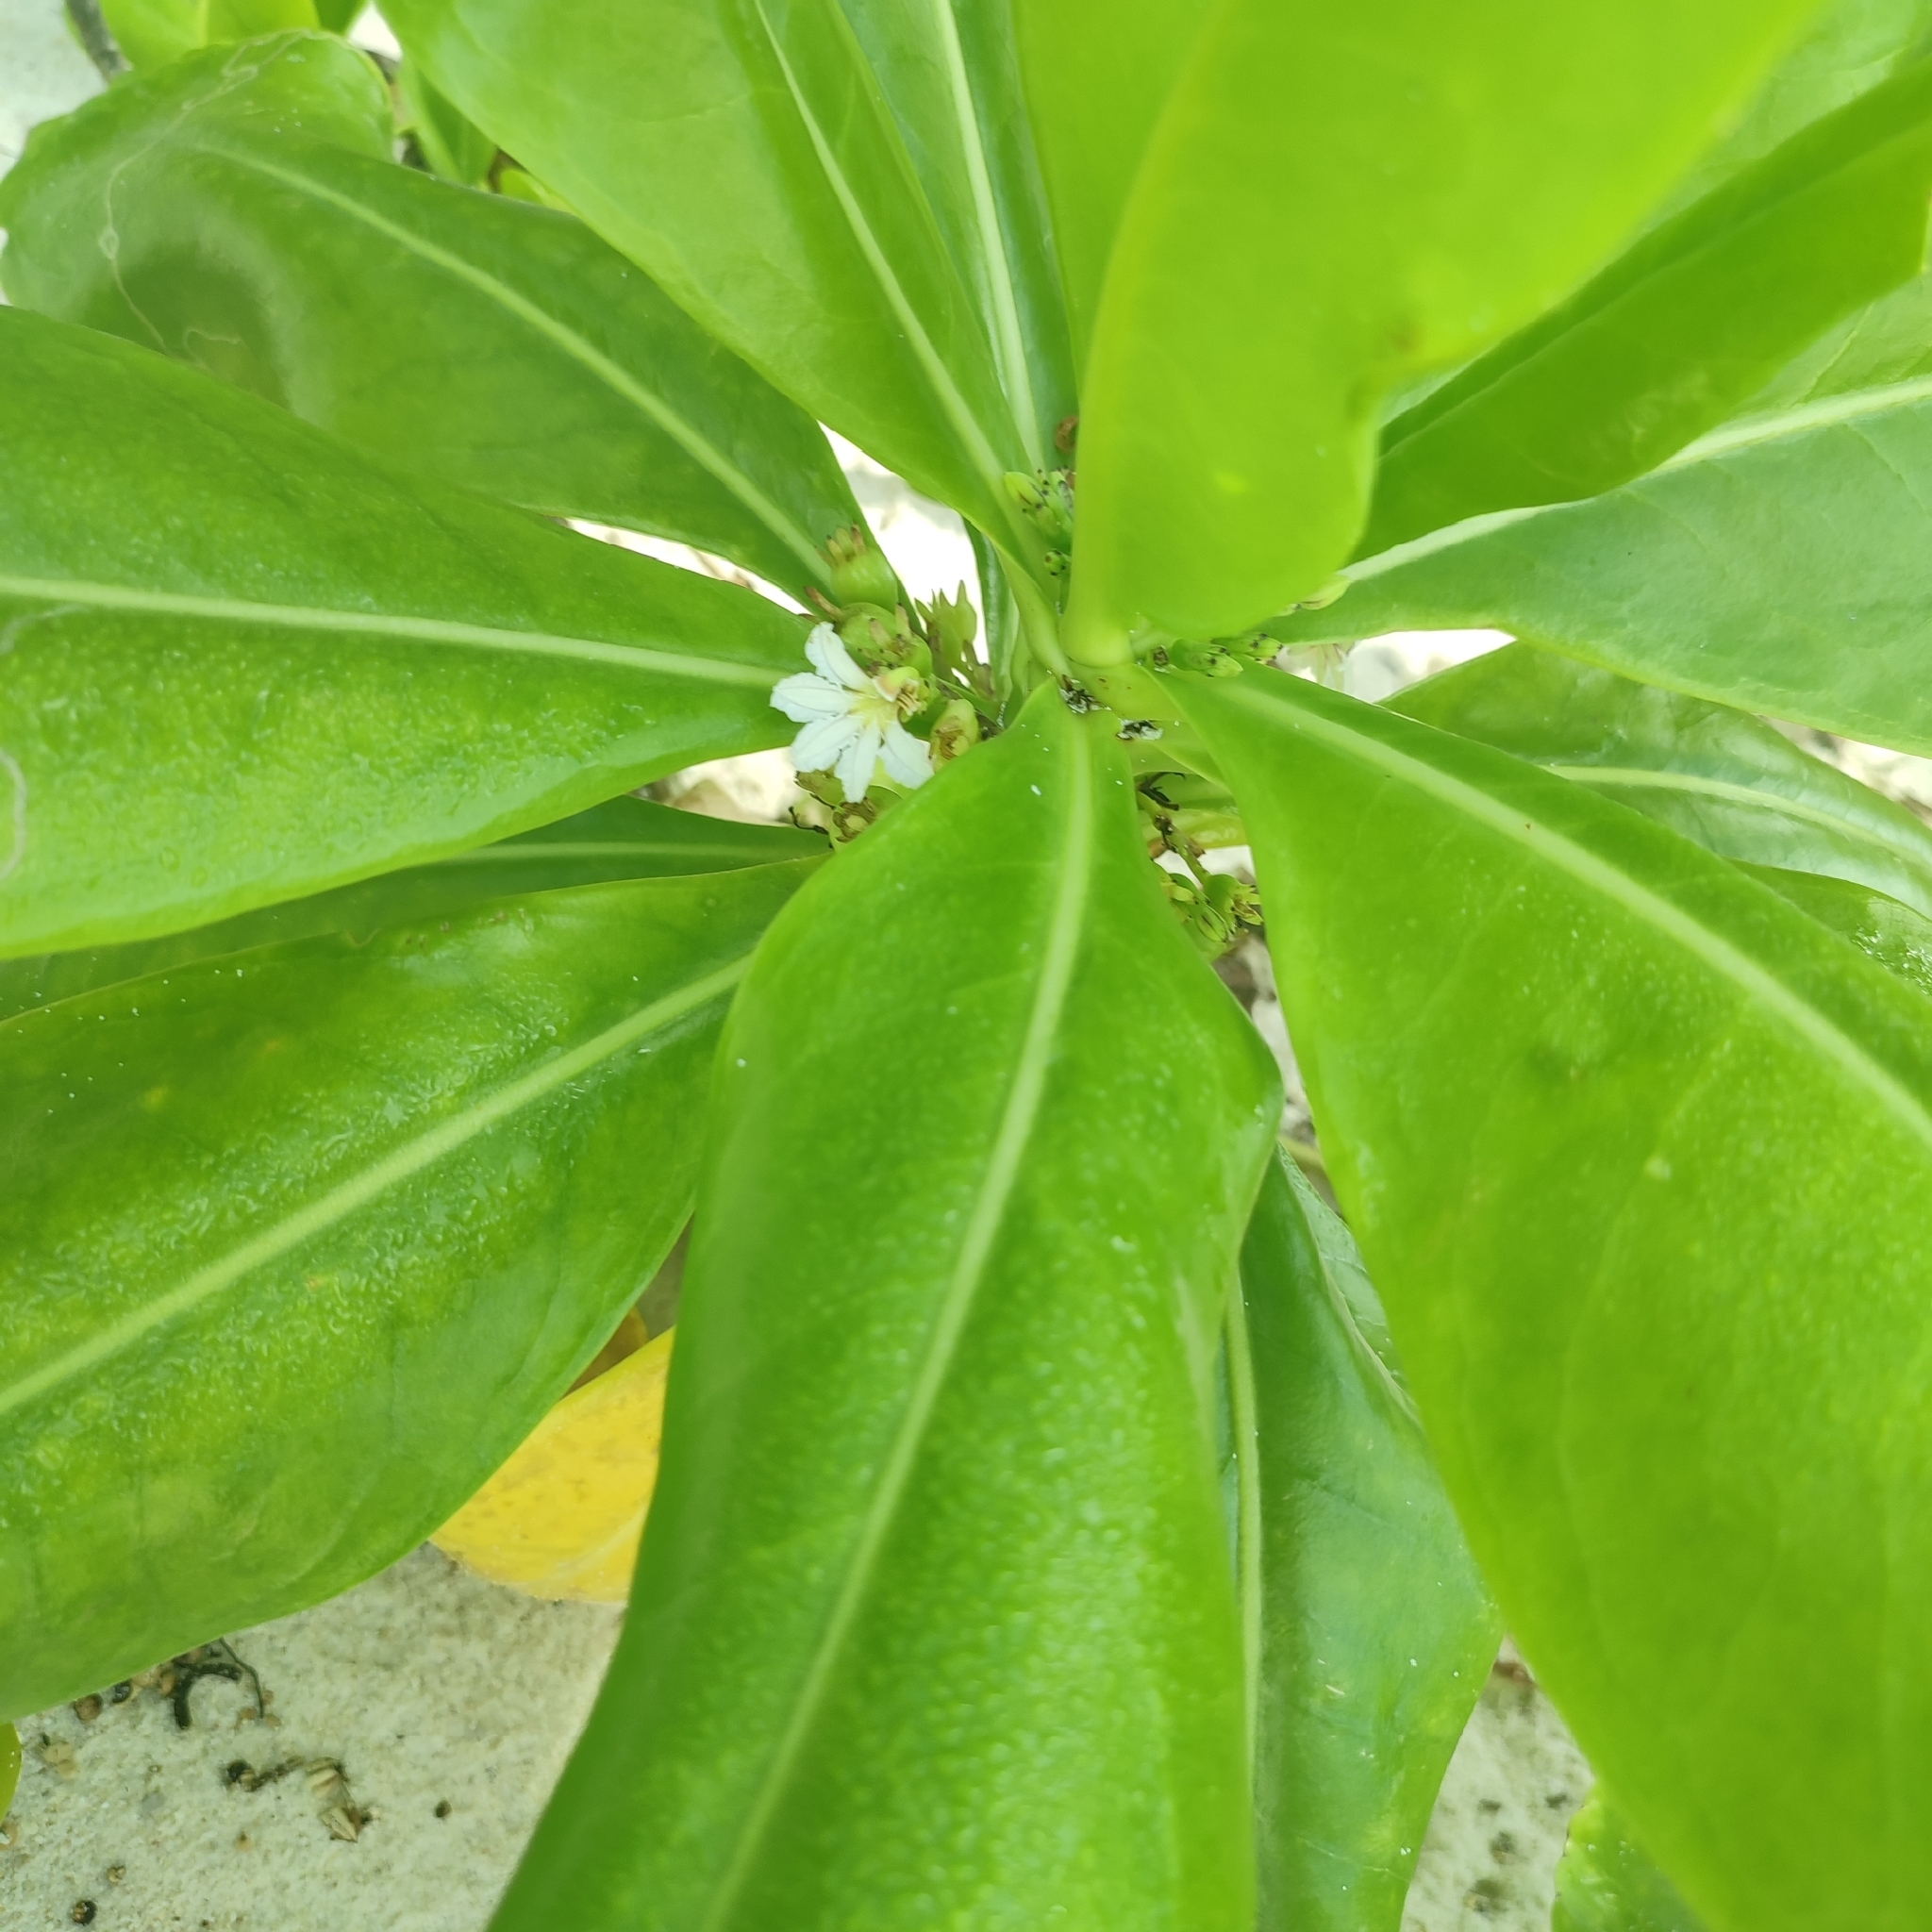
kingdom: Plantae
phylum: Tracheophyta
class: Magnoliopsida
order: Asterales
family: Goodeniaceae
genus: Scaevola
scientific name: Scaevola taccada
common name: Sea lettucetree
